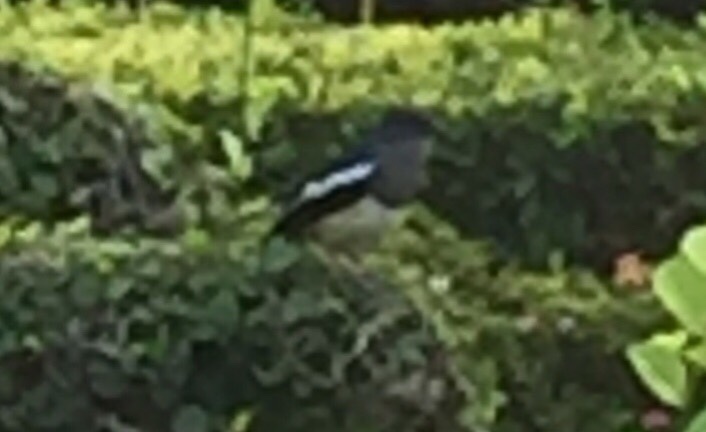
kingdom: Animalia
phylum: Chordata
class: Aves
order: Passeriformes
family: Muscicapidae
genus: Copsychus
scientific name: Copsychus saularis
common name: Oriental magpie-robin
